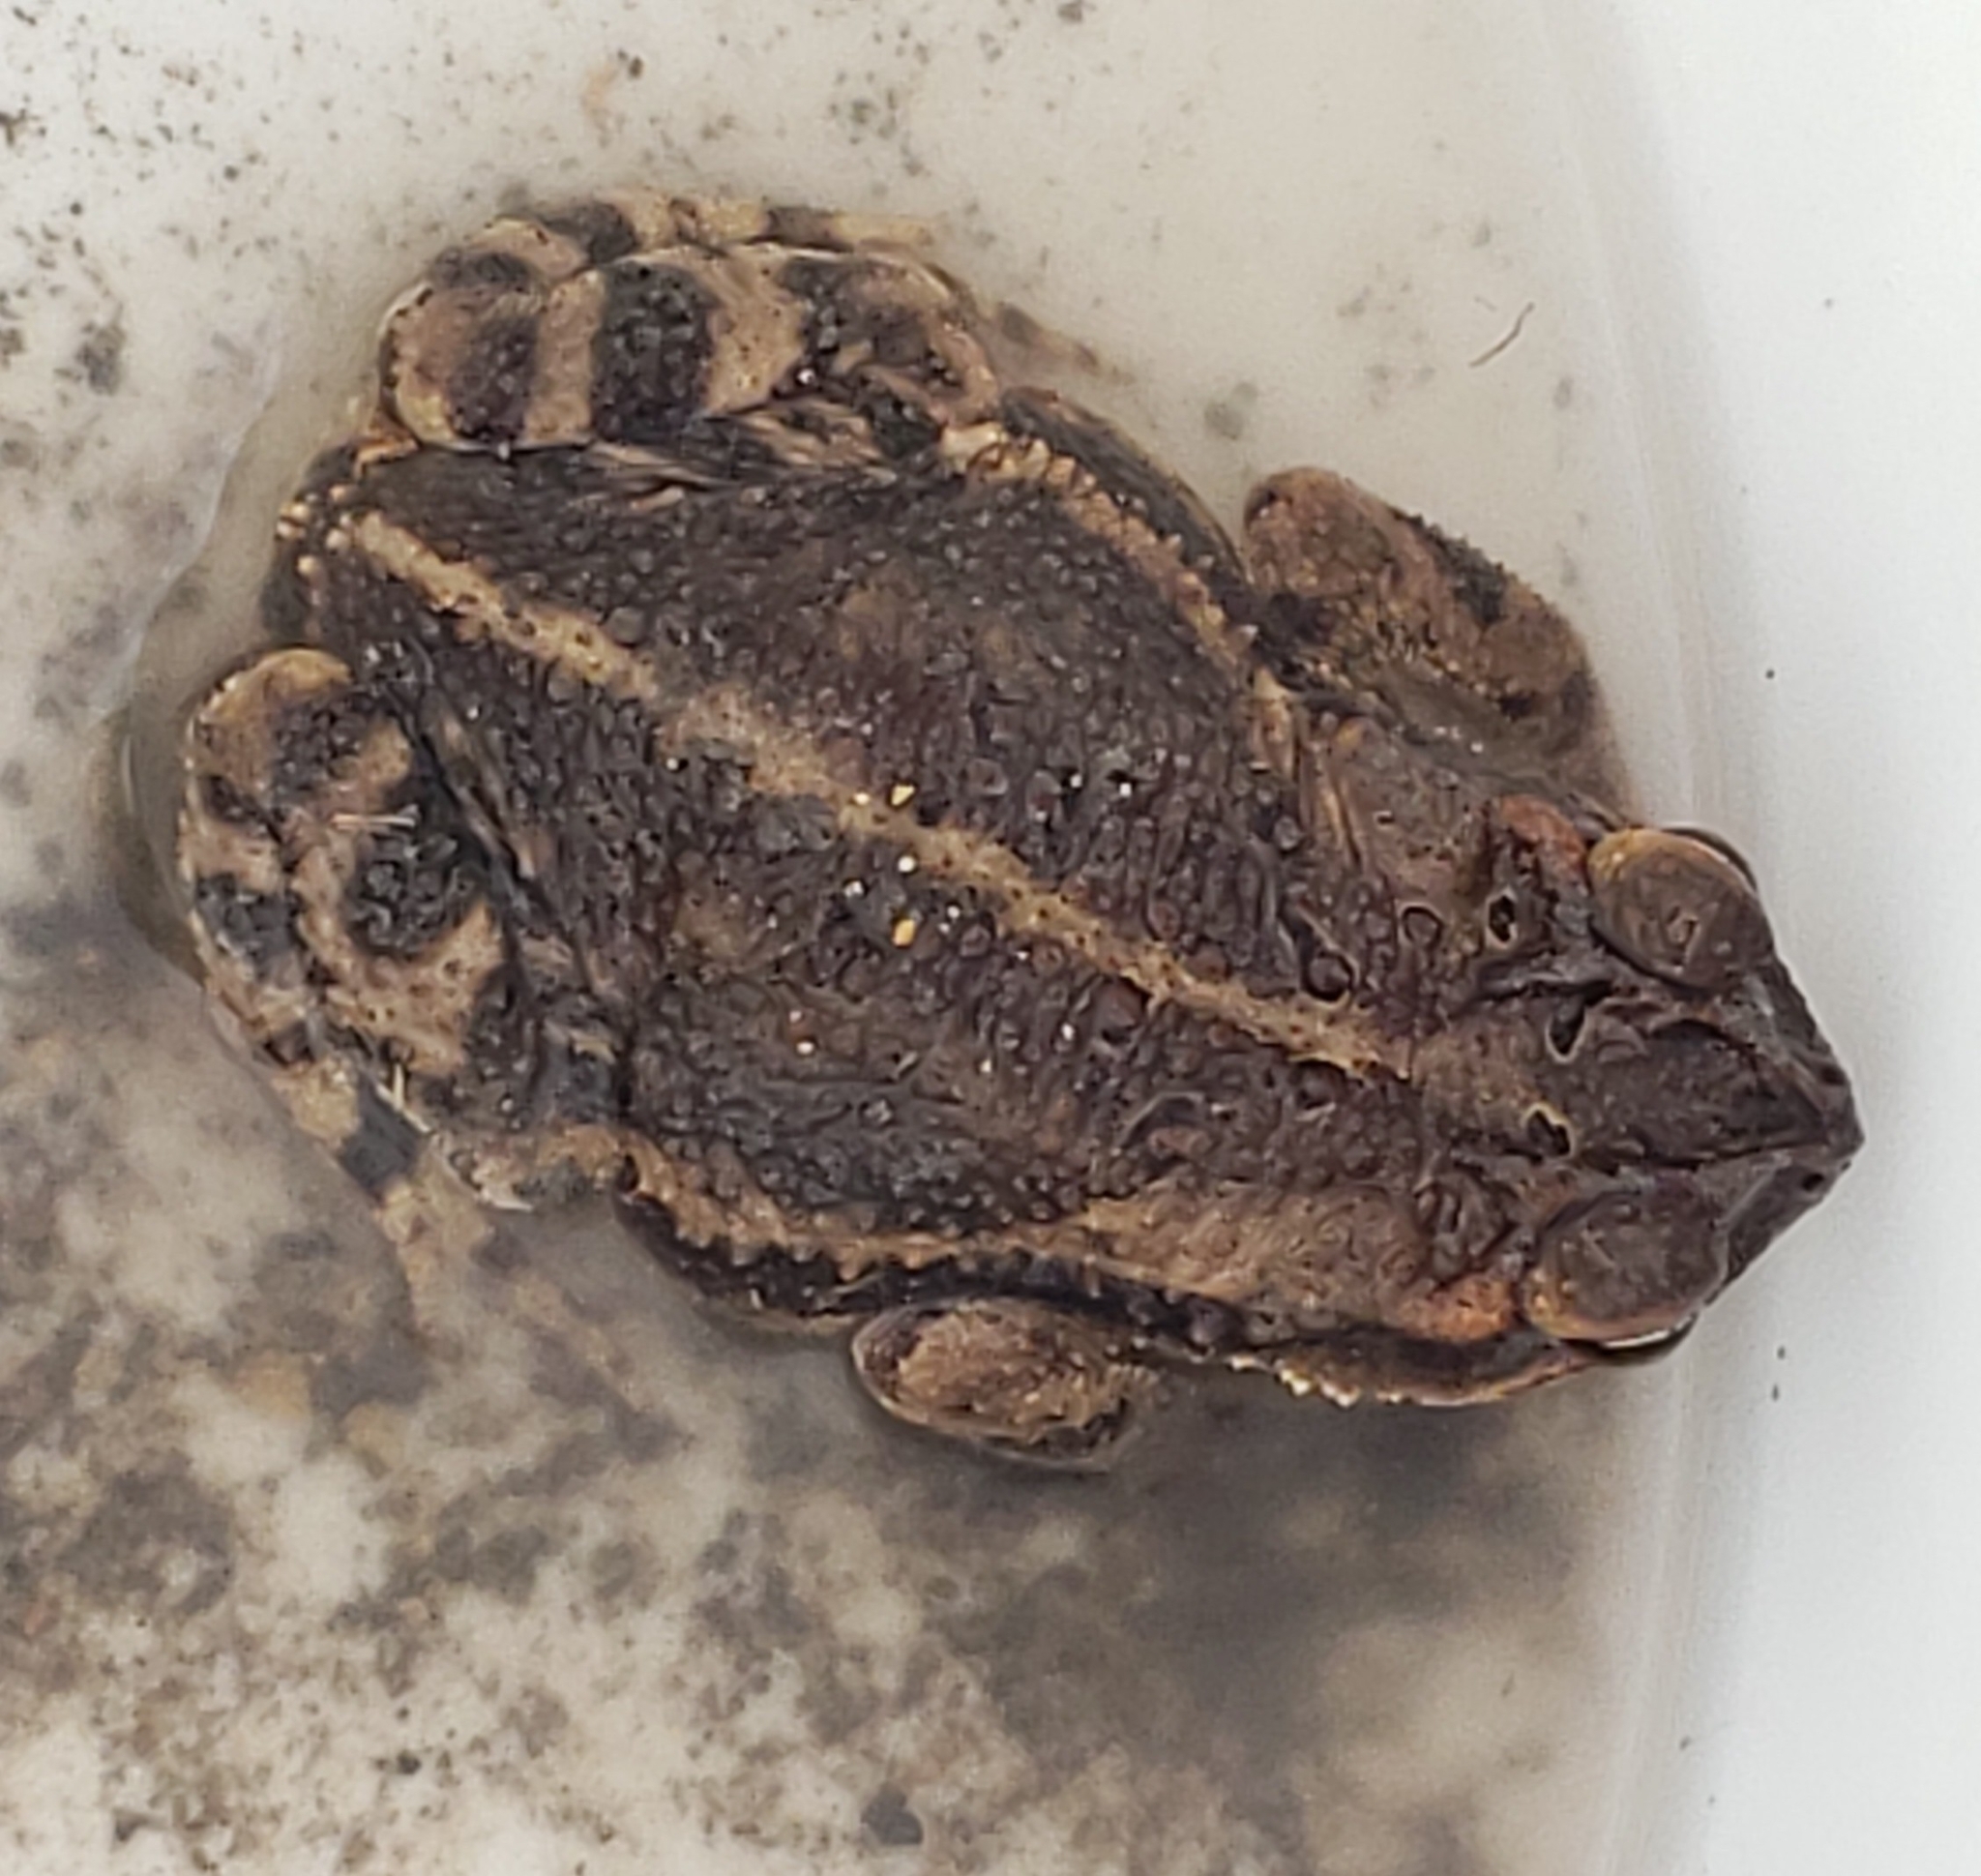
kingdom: Animalia
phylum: Chordata
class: Amphibia
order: Anura
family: Bufonidae
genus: Incilius
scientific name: Incilius nebulifer
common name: Gulf coast toad
